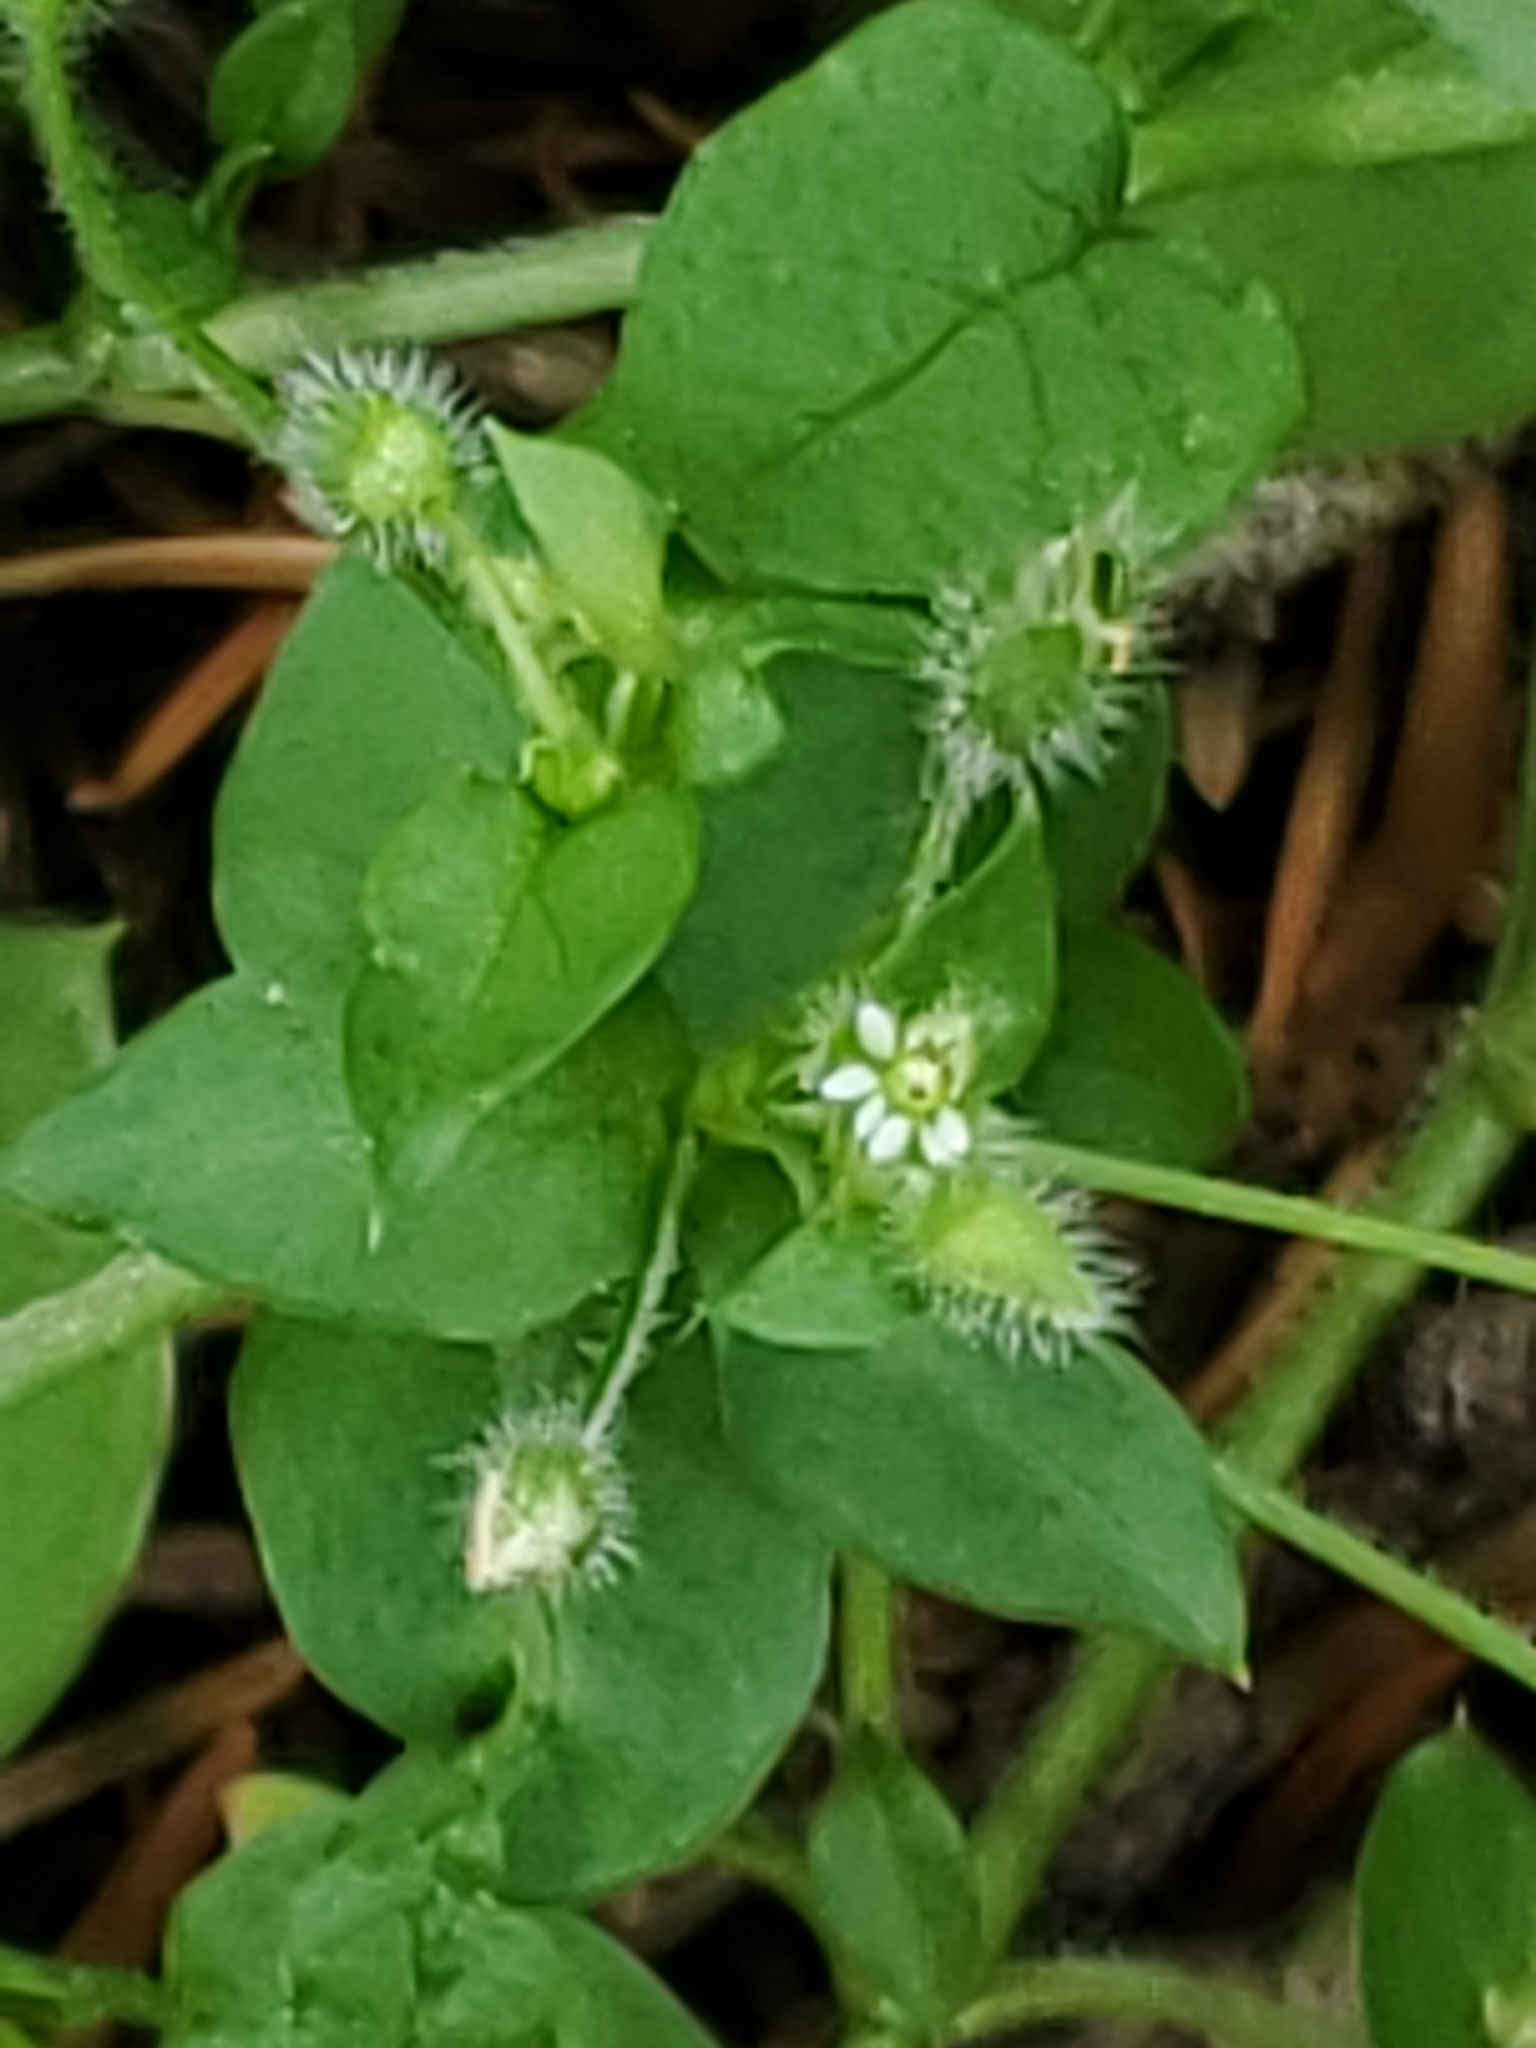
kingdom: Plantae
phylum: Tracheophyta
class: Magnoliopsida
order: Caryophyllales
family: Caryophyllaceae
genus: Arenaria
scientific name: Arenaria serpyllifolia
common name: Thyme-leaved sandwort
